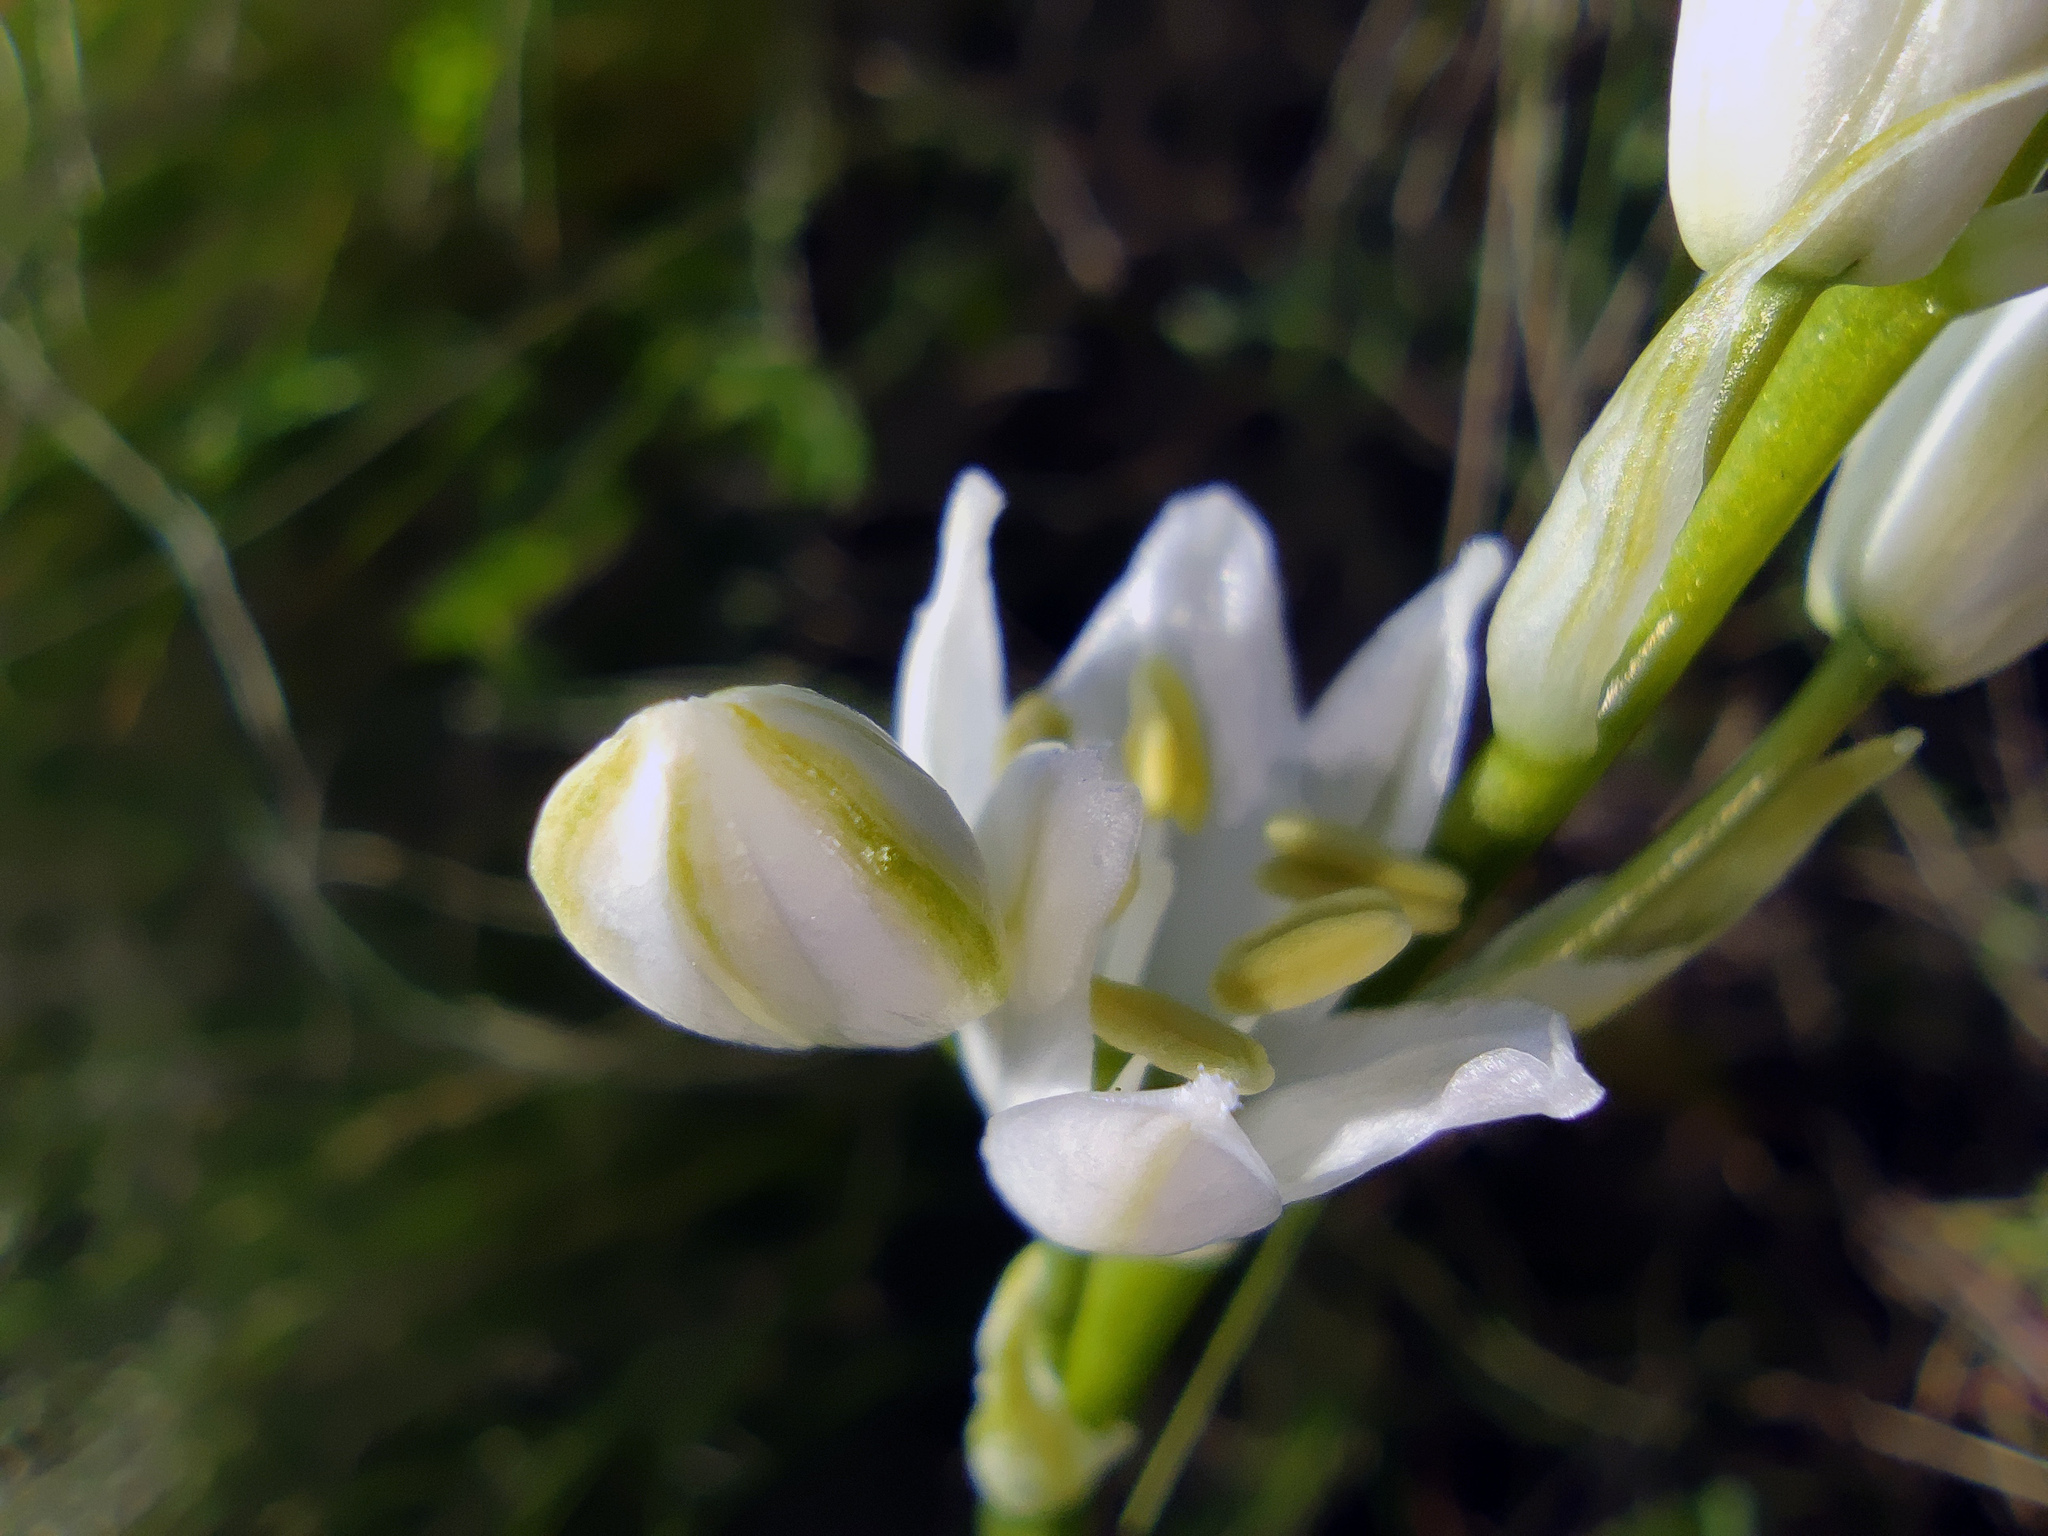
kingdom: Plantae
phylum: Tracheophyta
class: Liliopsida
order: Asparagales
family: Asparagaceae
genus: Ornithogalum
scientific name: Ornithogalum fischerianum
